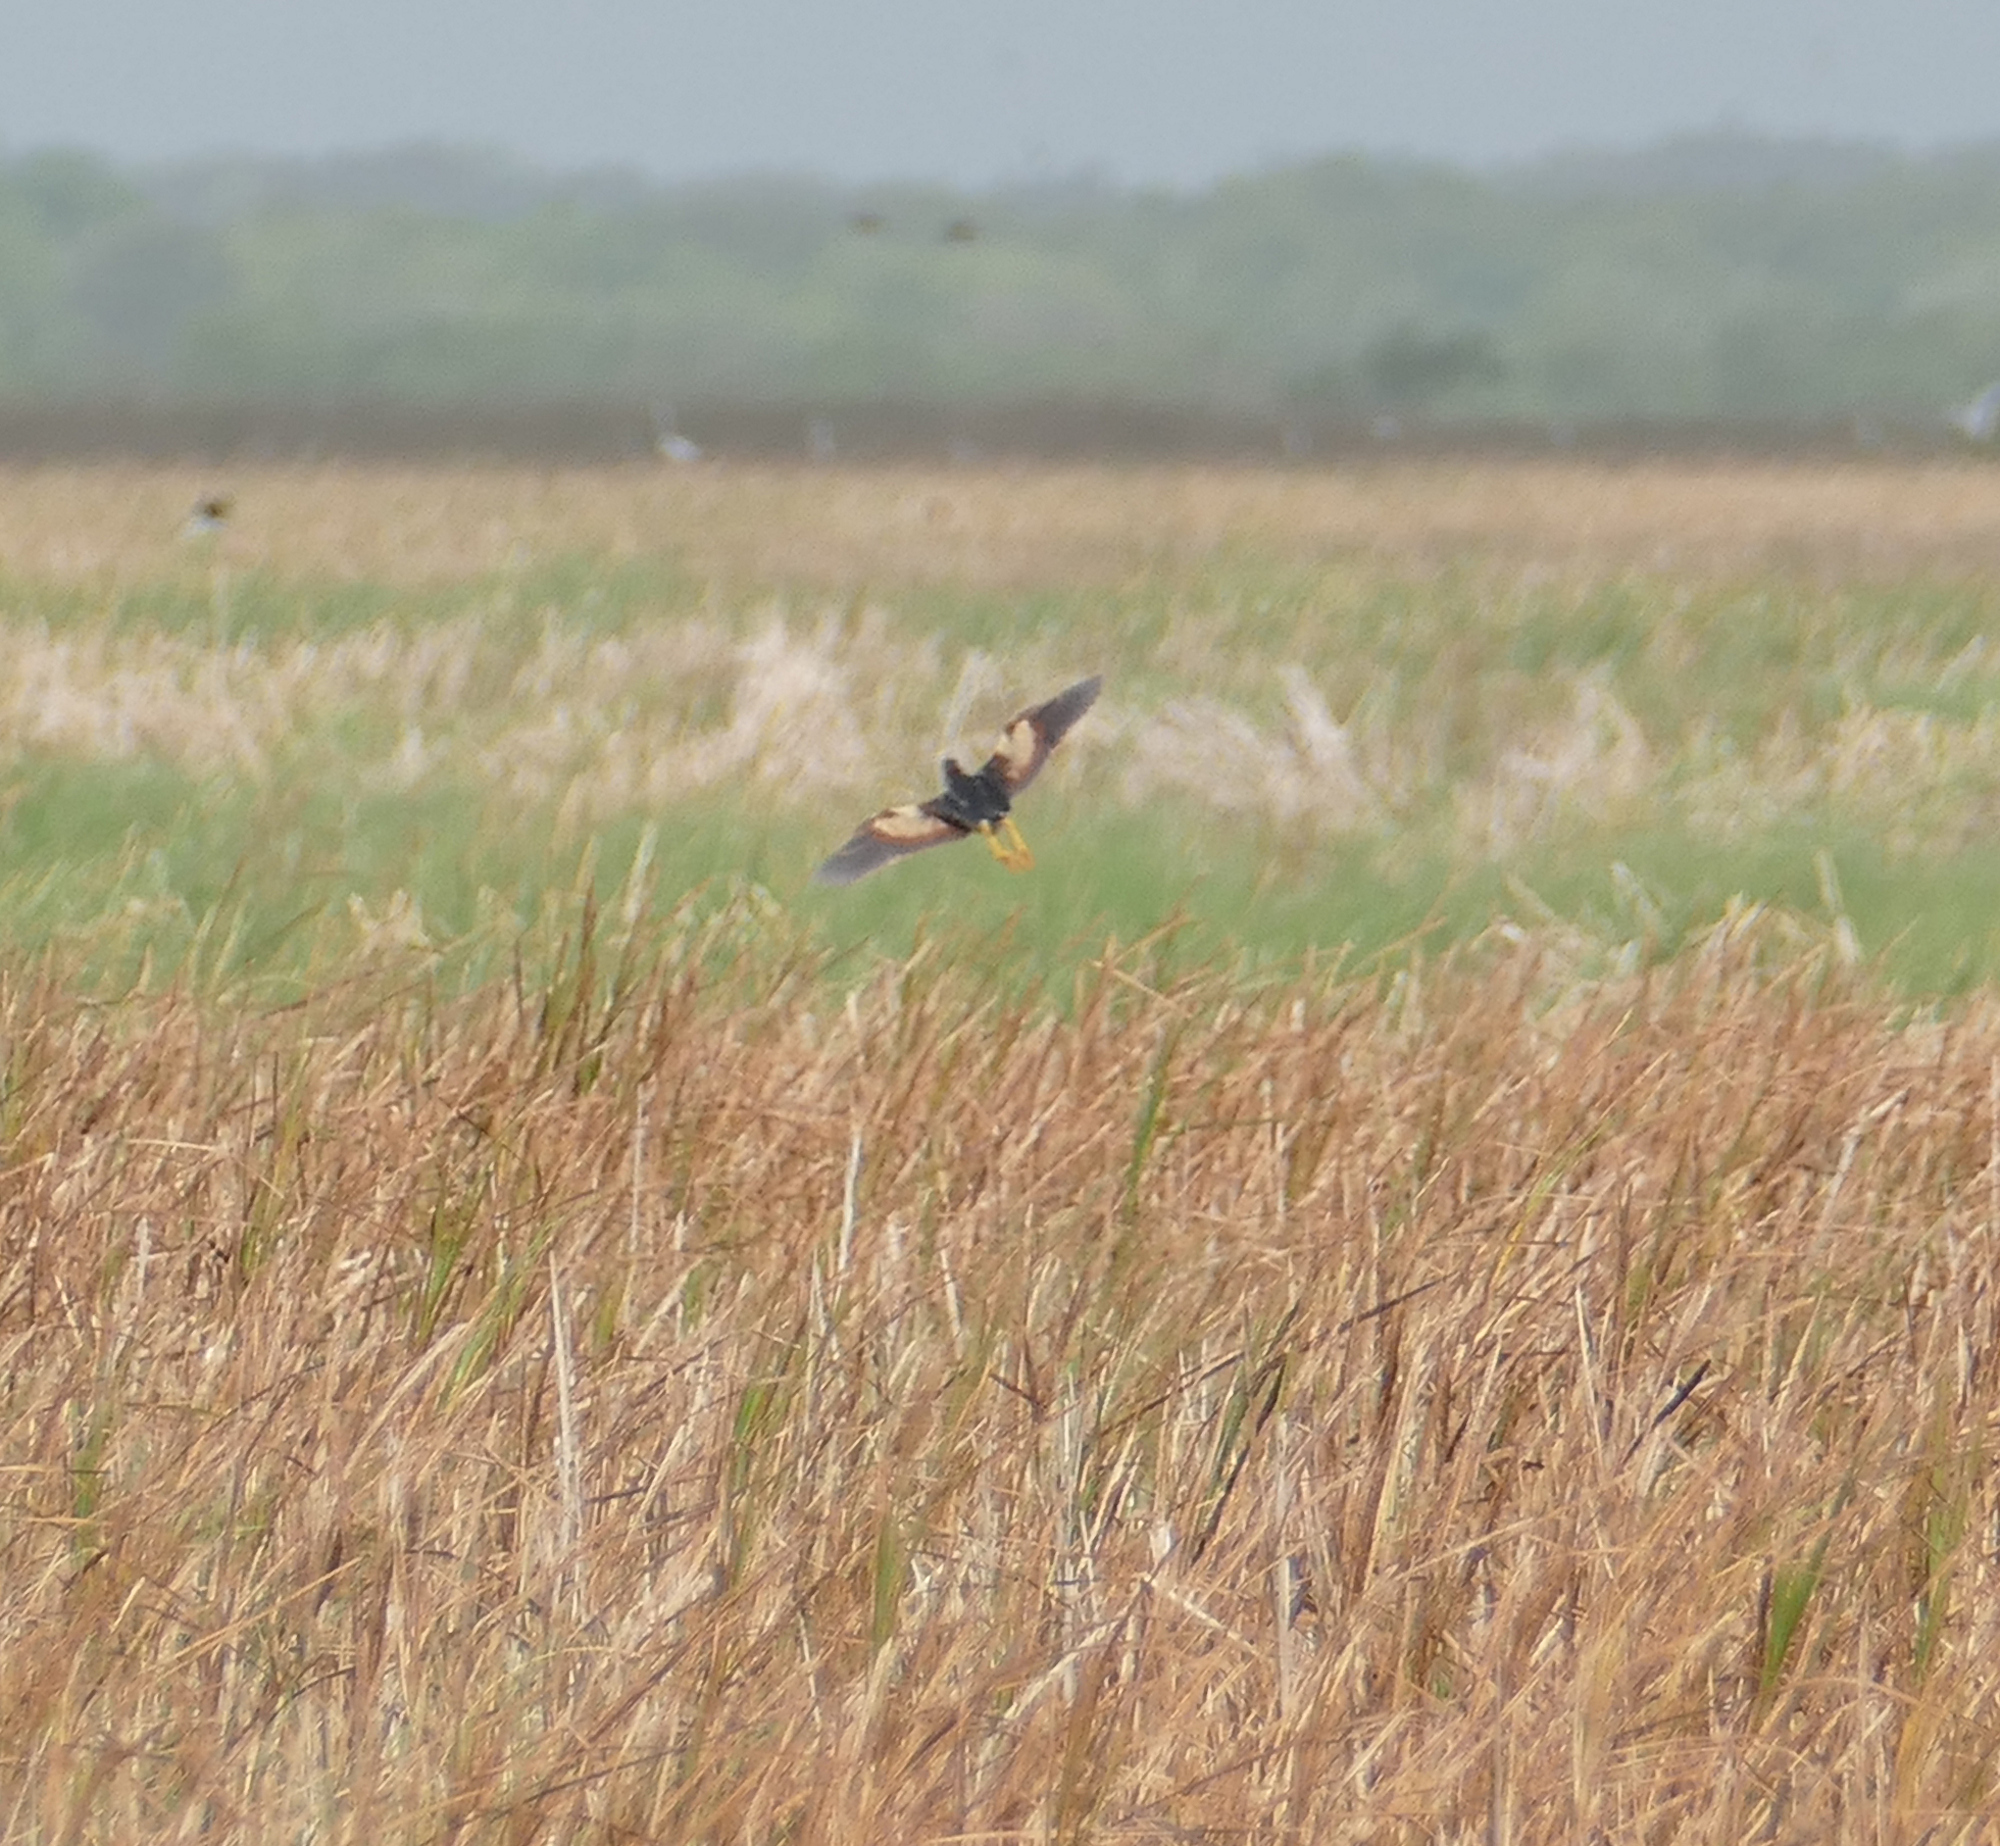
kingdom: Animalia
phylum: Chordata
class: Aves
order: Pelecaniformes
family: Ardeidae
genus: Ixobrychus
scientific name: Ixobrychus exilis
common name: Least bittern
